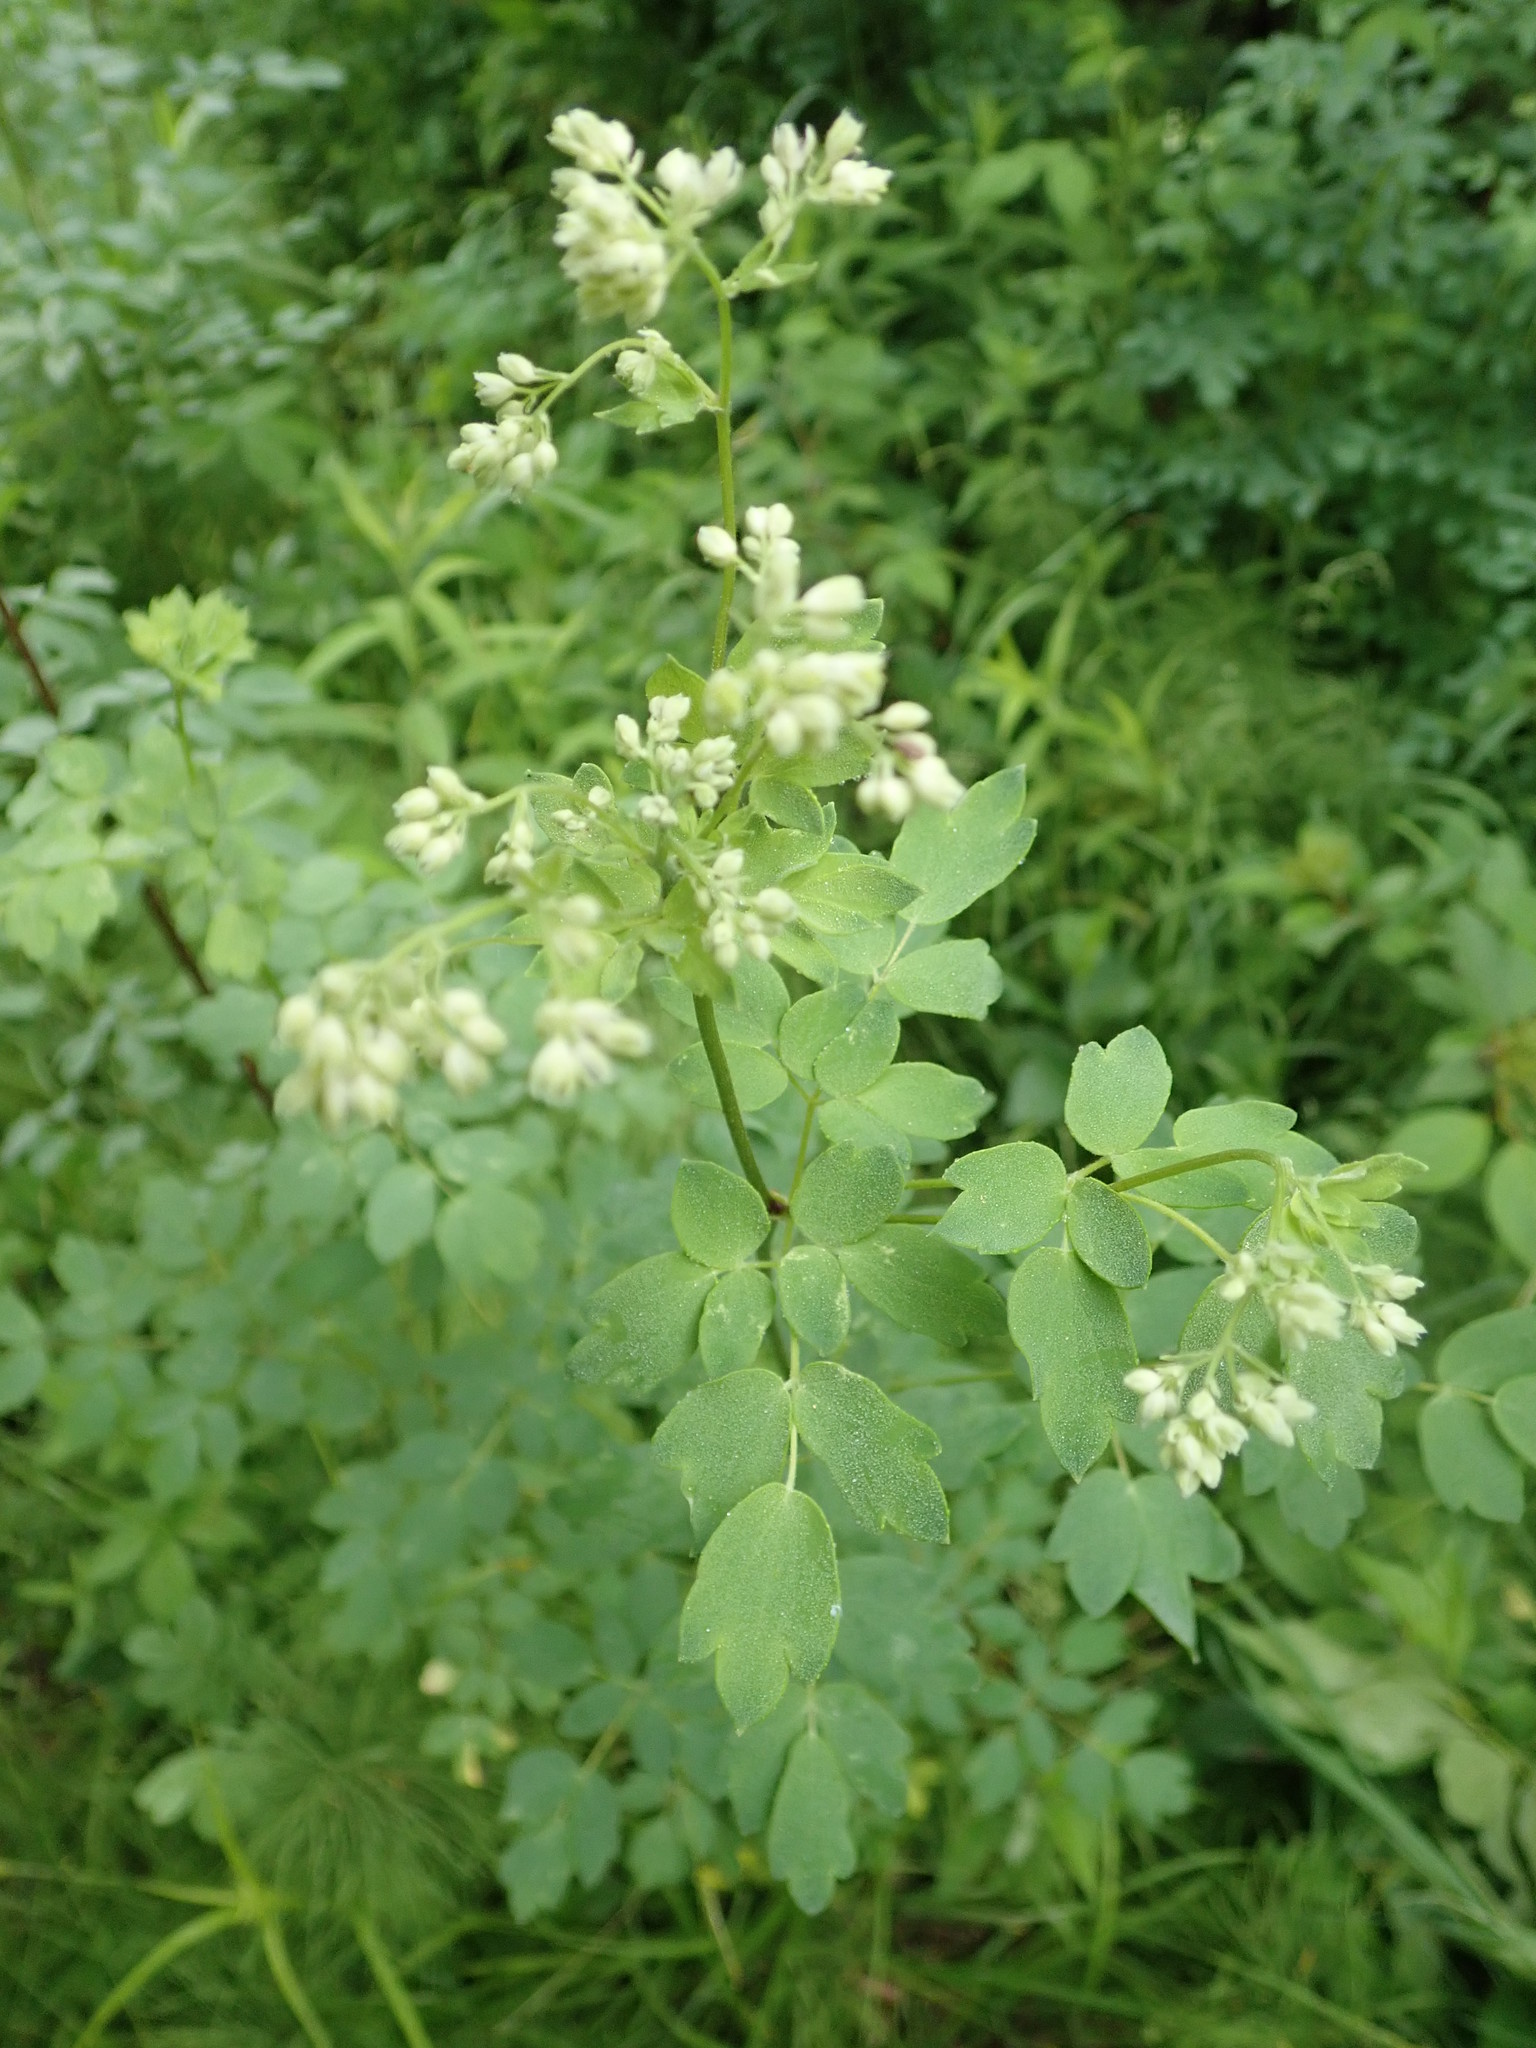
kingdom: Plantae
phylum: Tracheophyta
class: Magnoliopsida
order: Ranunculales
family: Ranunculaceae
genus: Thalictrum
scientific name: Thalictrum dasycarpum
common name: Purple meadow-rue
